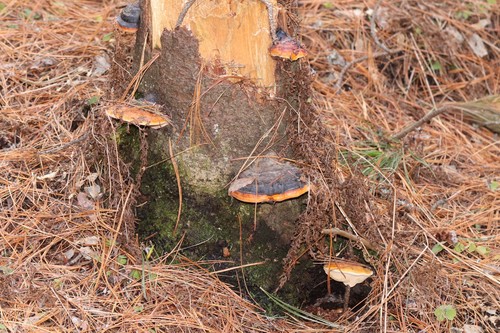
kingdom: Fungi
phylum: Basidiomycota
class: Agaricomycetes
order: Polyporales
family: Fomitopsidaceae
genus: Fomitopsis
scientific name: Fomitopsis pinicola
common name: Red-belted bracket
